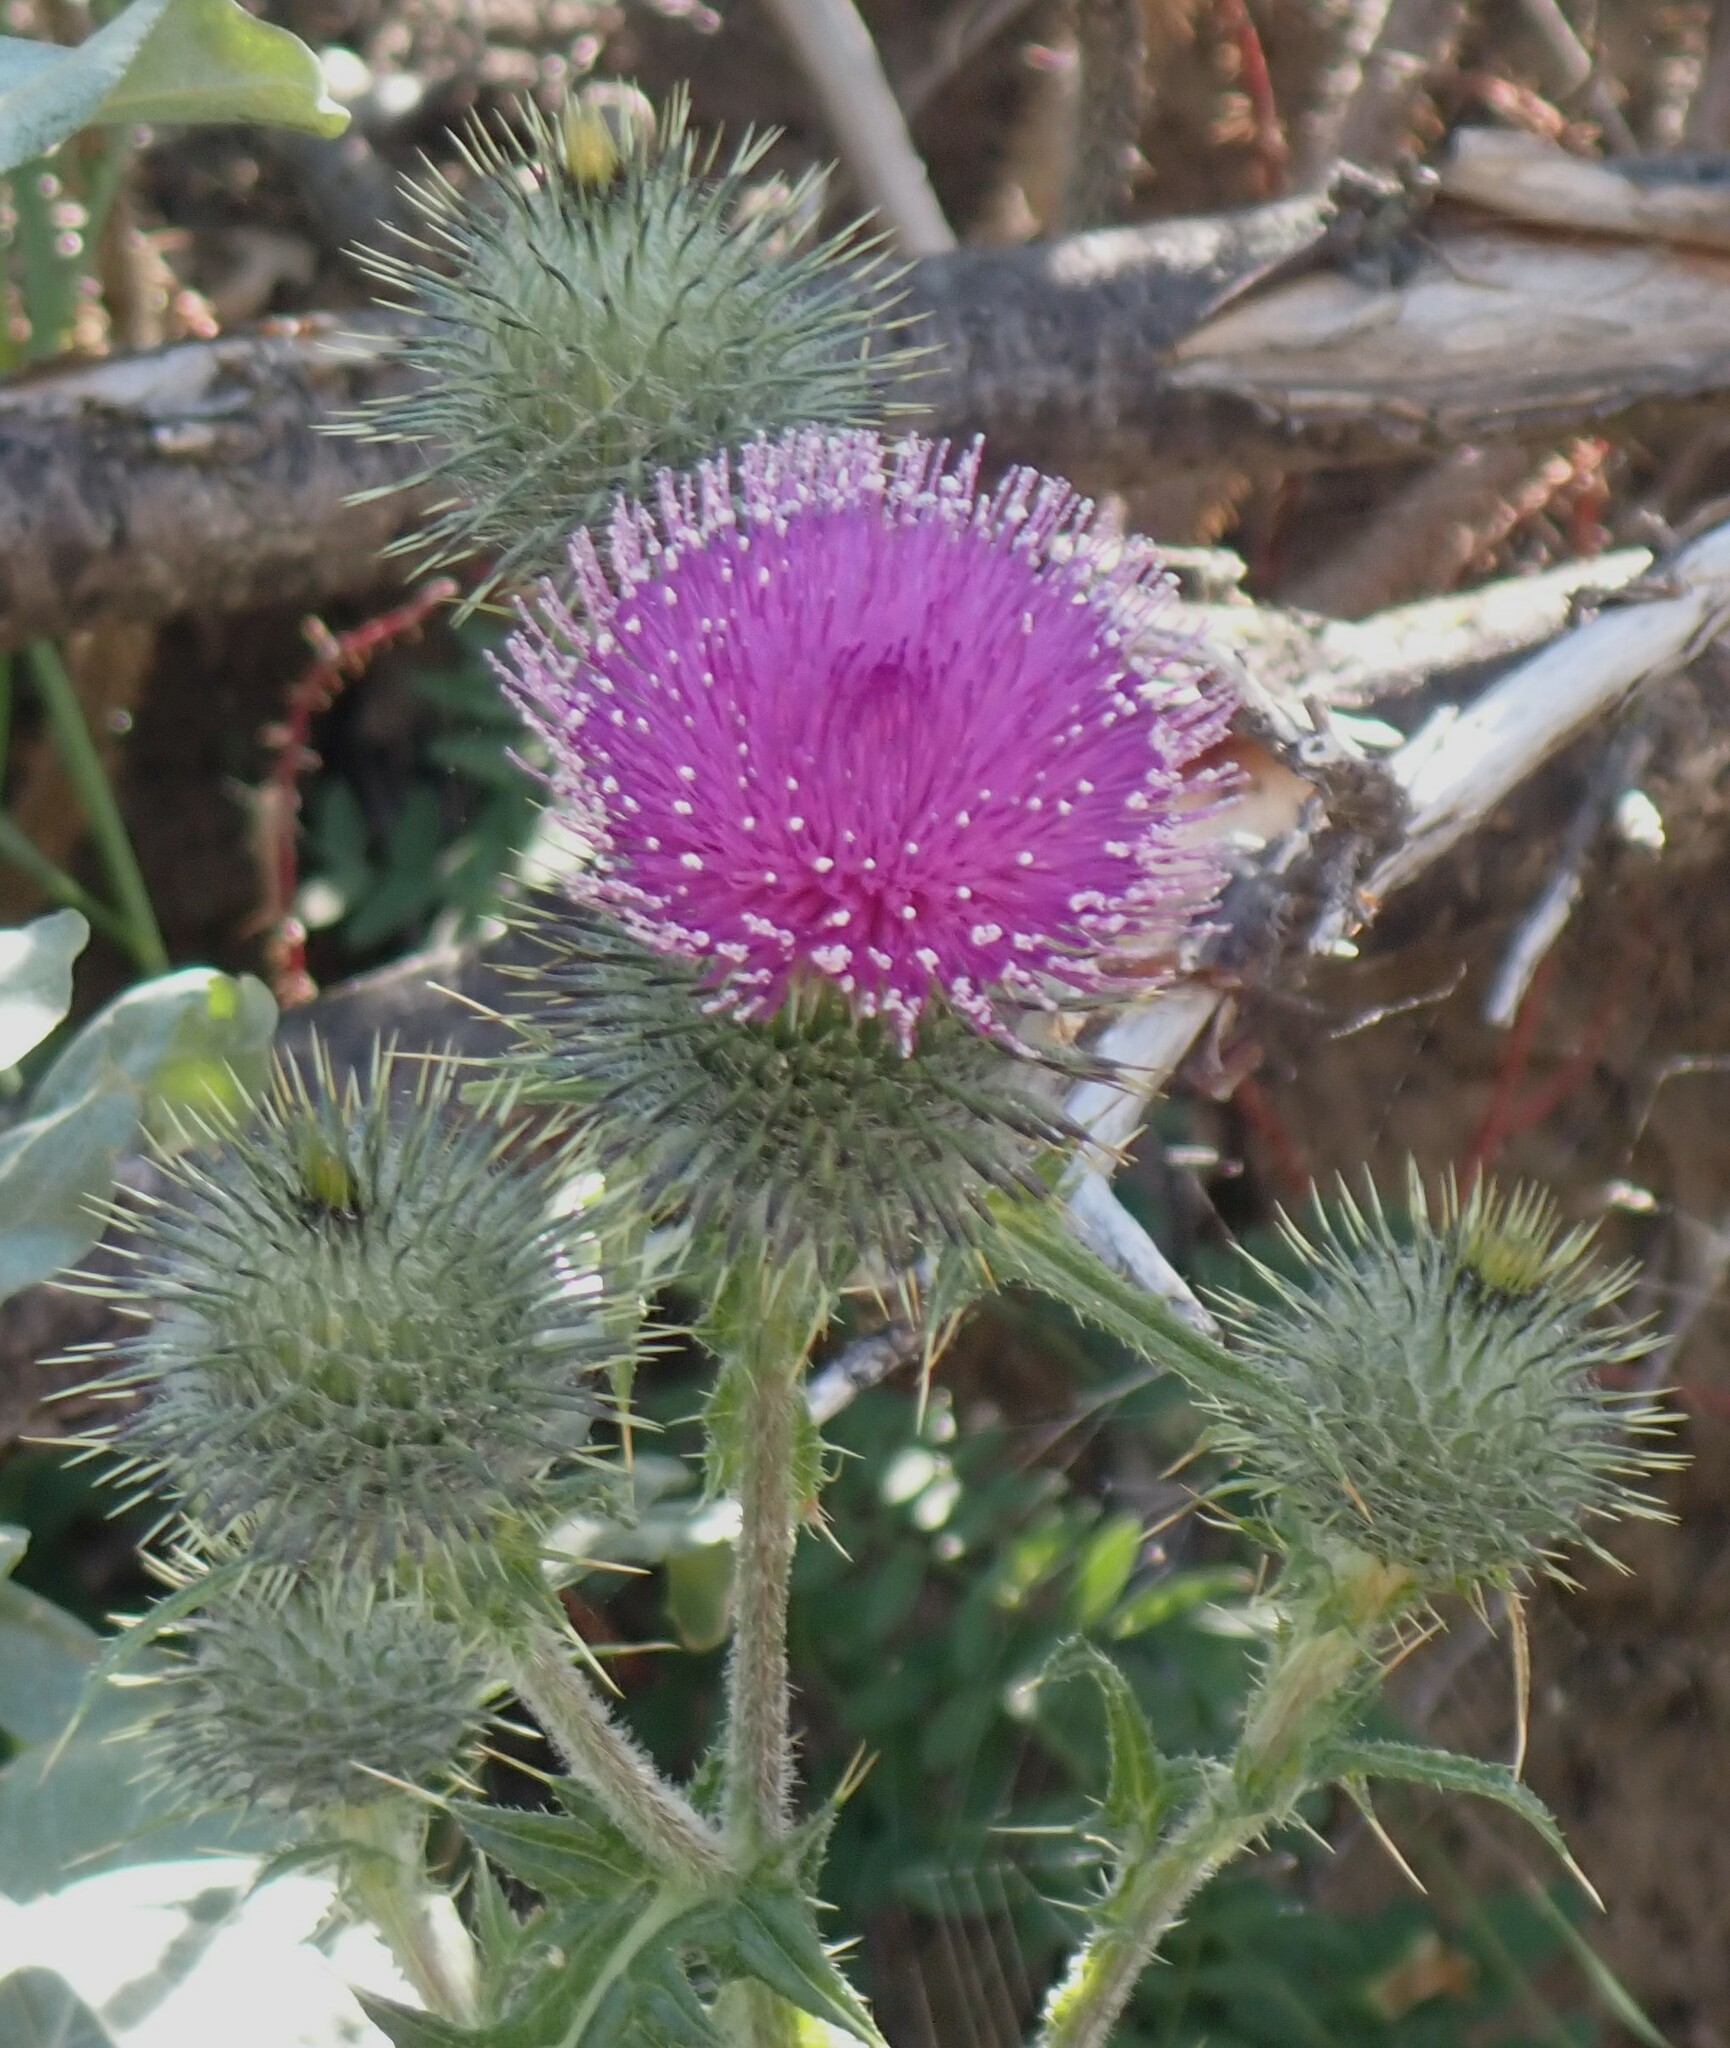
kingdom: Plantae
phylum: Tracheophyta
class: Magnoliopsida
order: Asterales
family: Asteraceae
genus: Cirsium
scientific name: Cirsium vulgare
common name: Bull thistle
